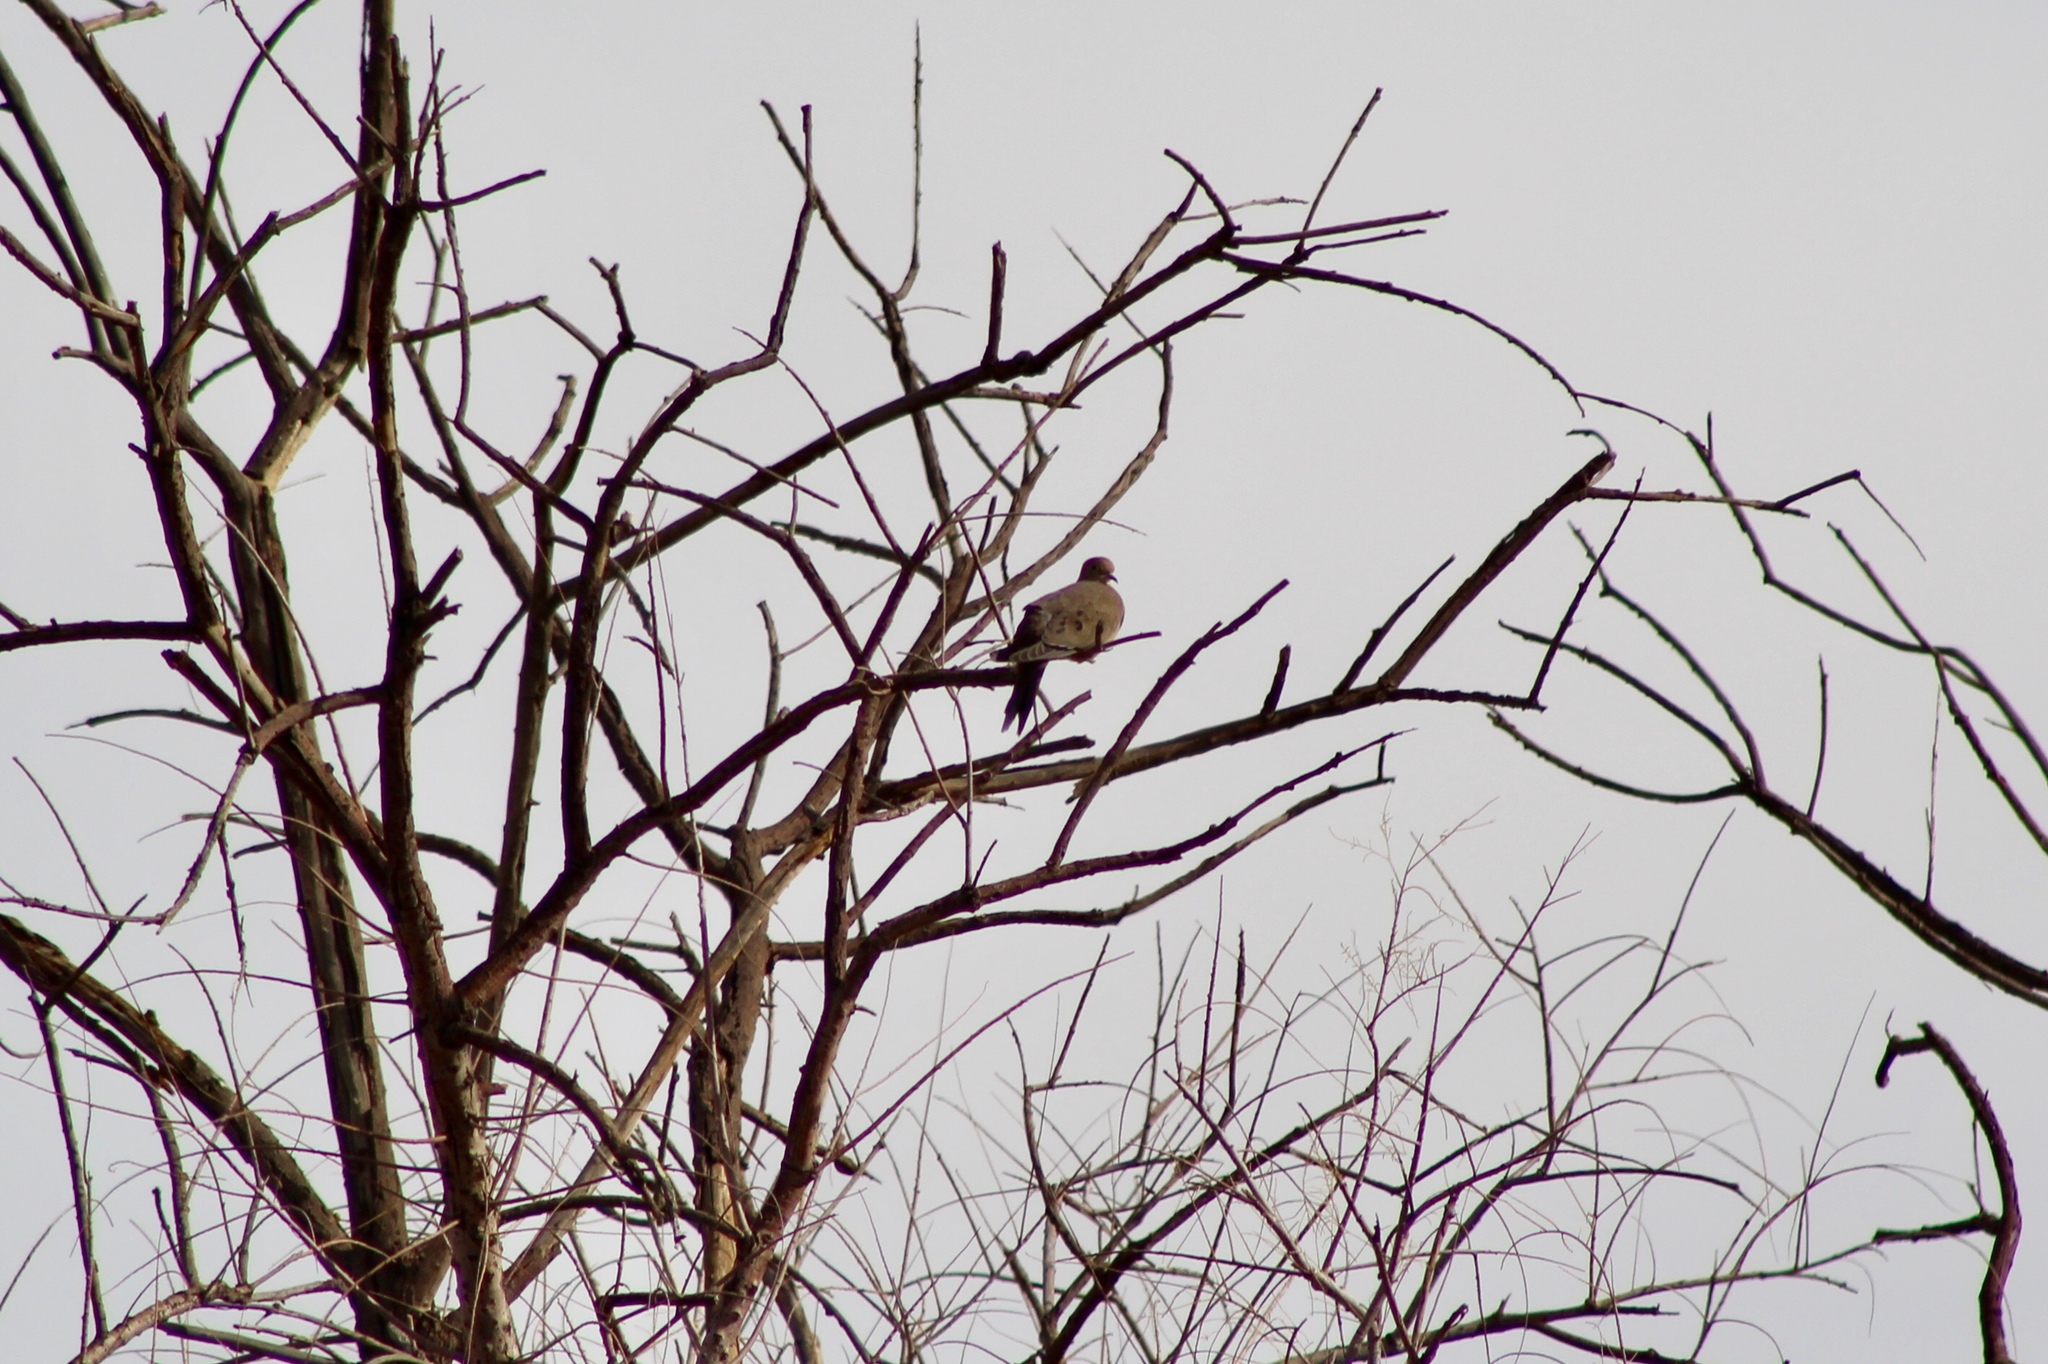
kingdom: Animalia
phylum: Chordata
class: Aves
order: Columbiformes
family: Columbidae
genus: Zenaida
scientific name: Zenaida macroura
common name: Mourning dove
